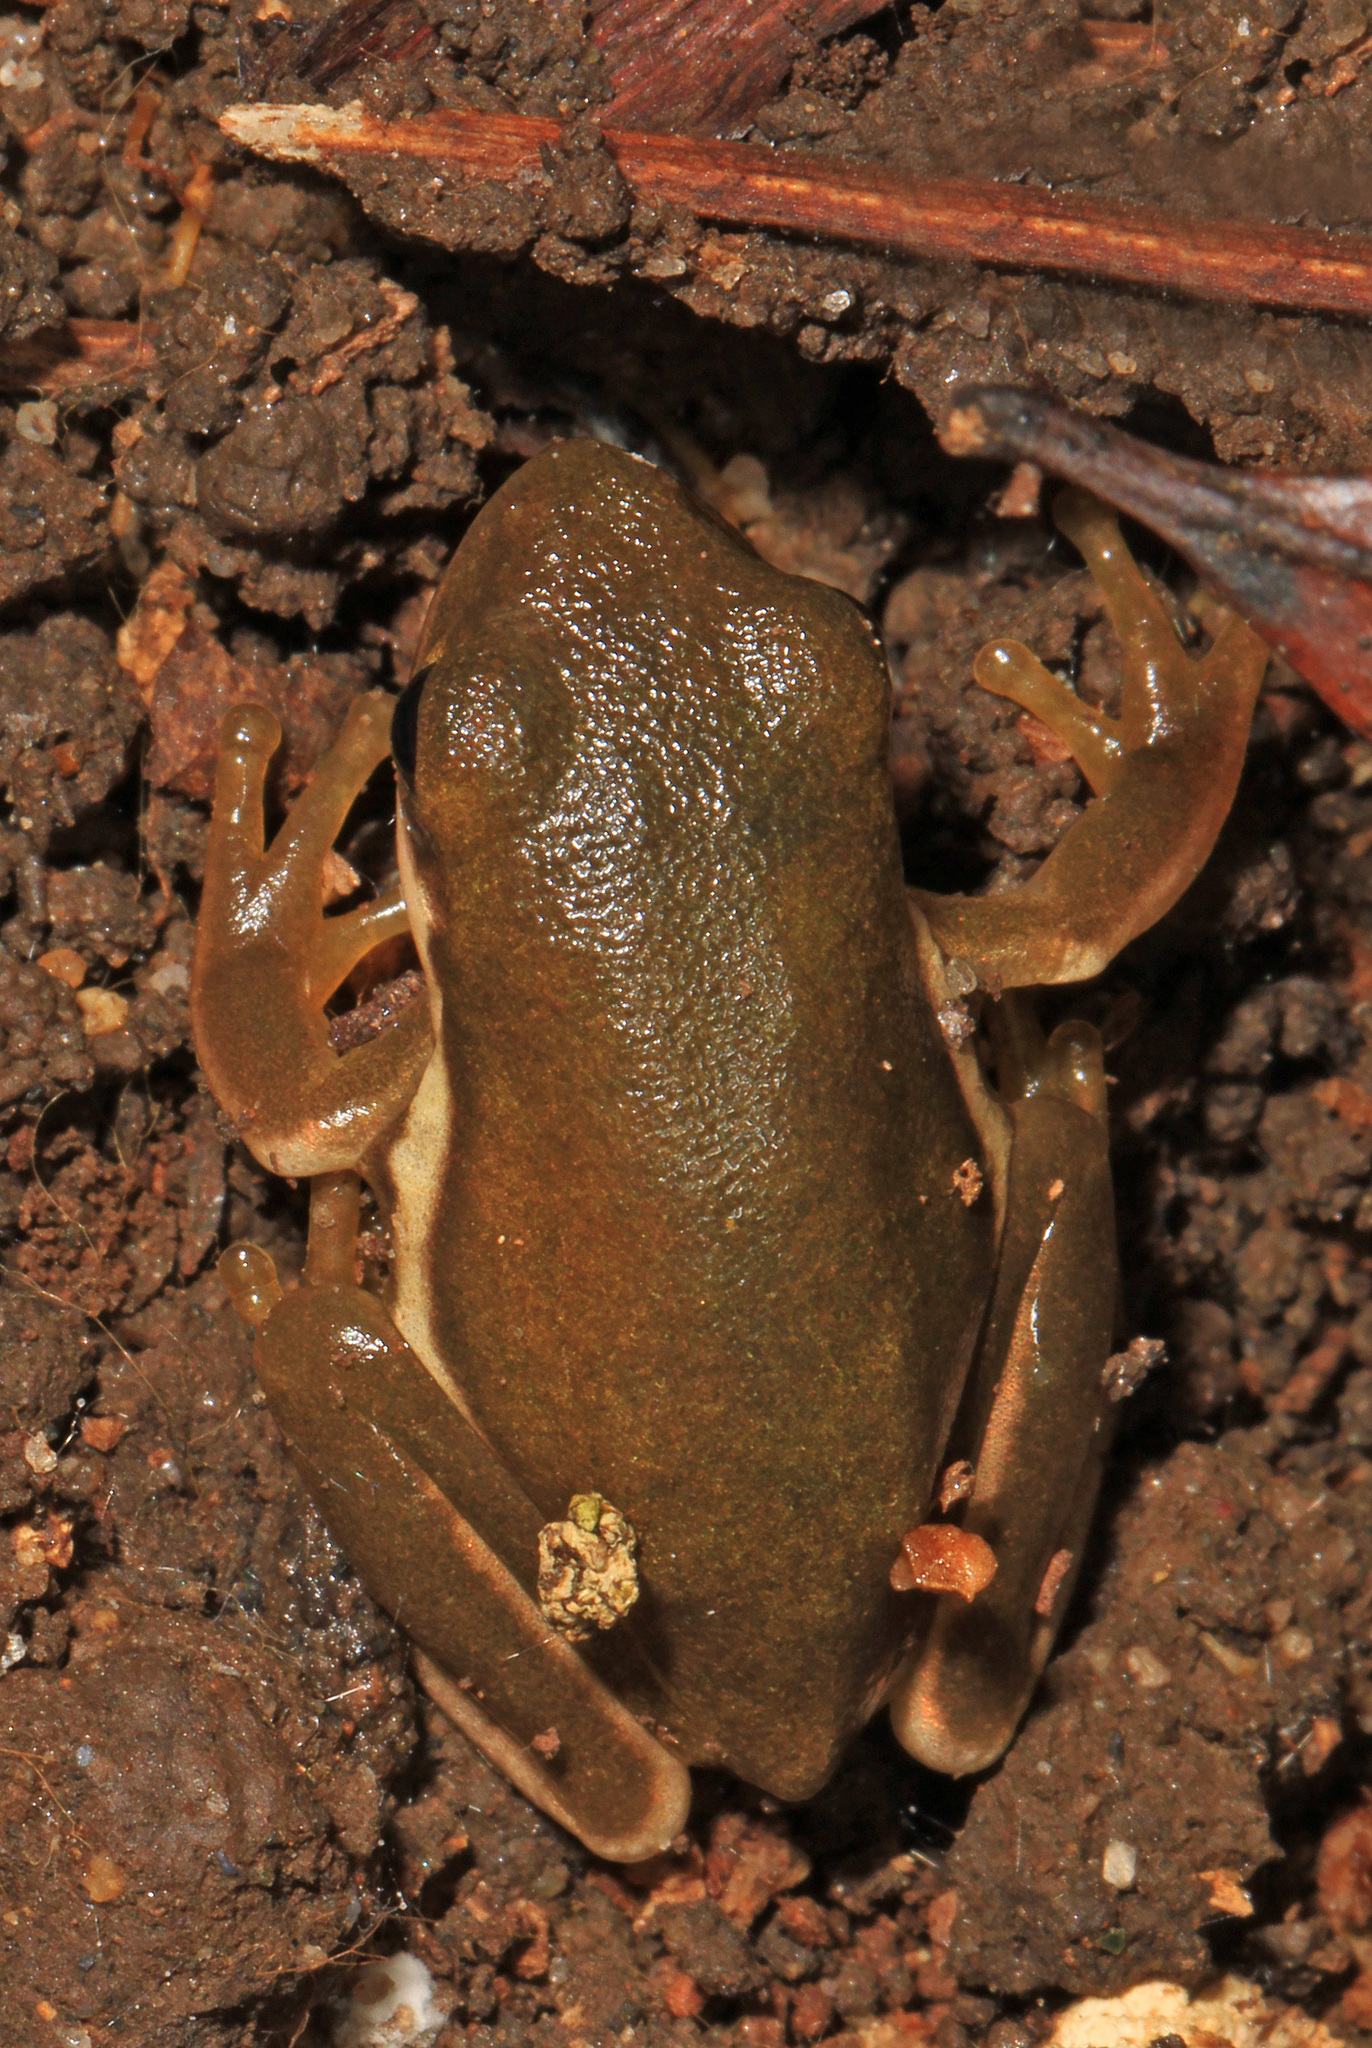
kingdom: Animalia
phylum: Chordata
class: Amphibia
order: Anura
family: Hylidae
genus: Dryophytes
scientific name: Dryophytes cinereus
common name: Green treefrog
